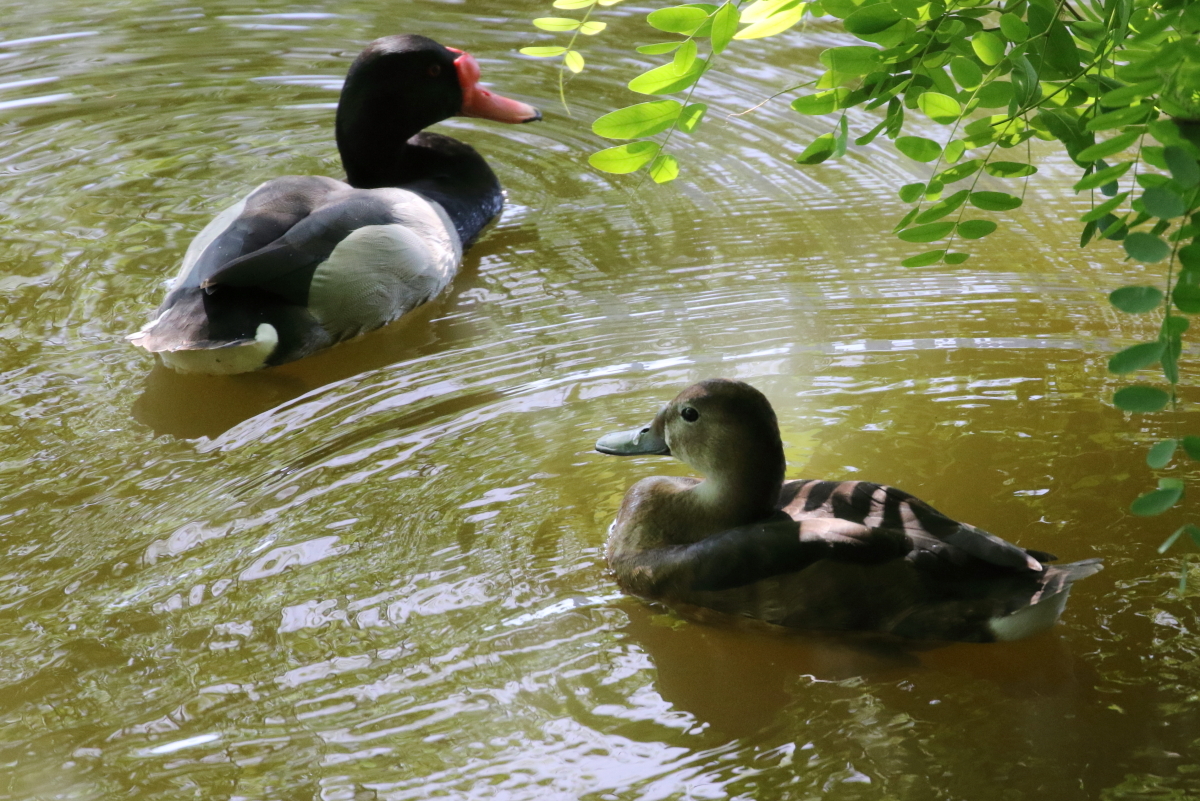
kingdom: Animalia
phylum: Chordata
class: Aves
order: Anseriformes
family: Anatidae
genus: Netta
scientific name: Netta peposaca
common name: Rosy-billed pochard
